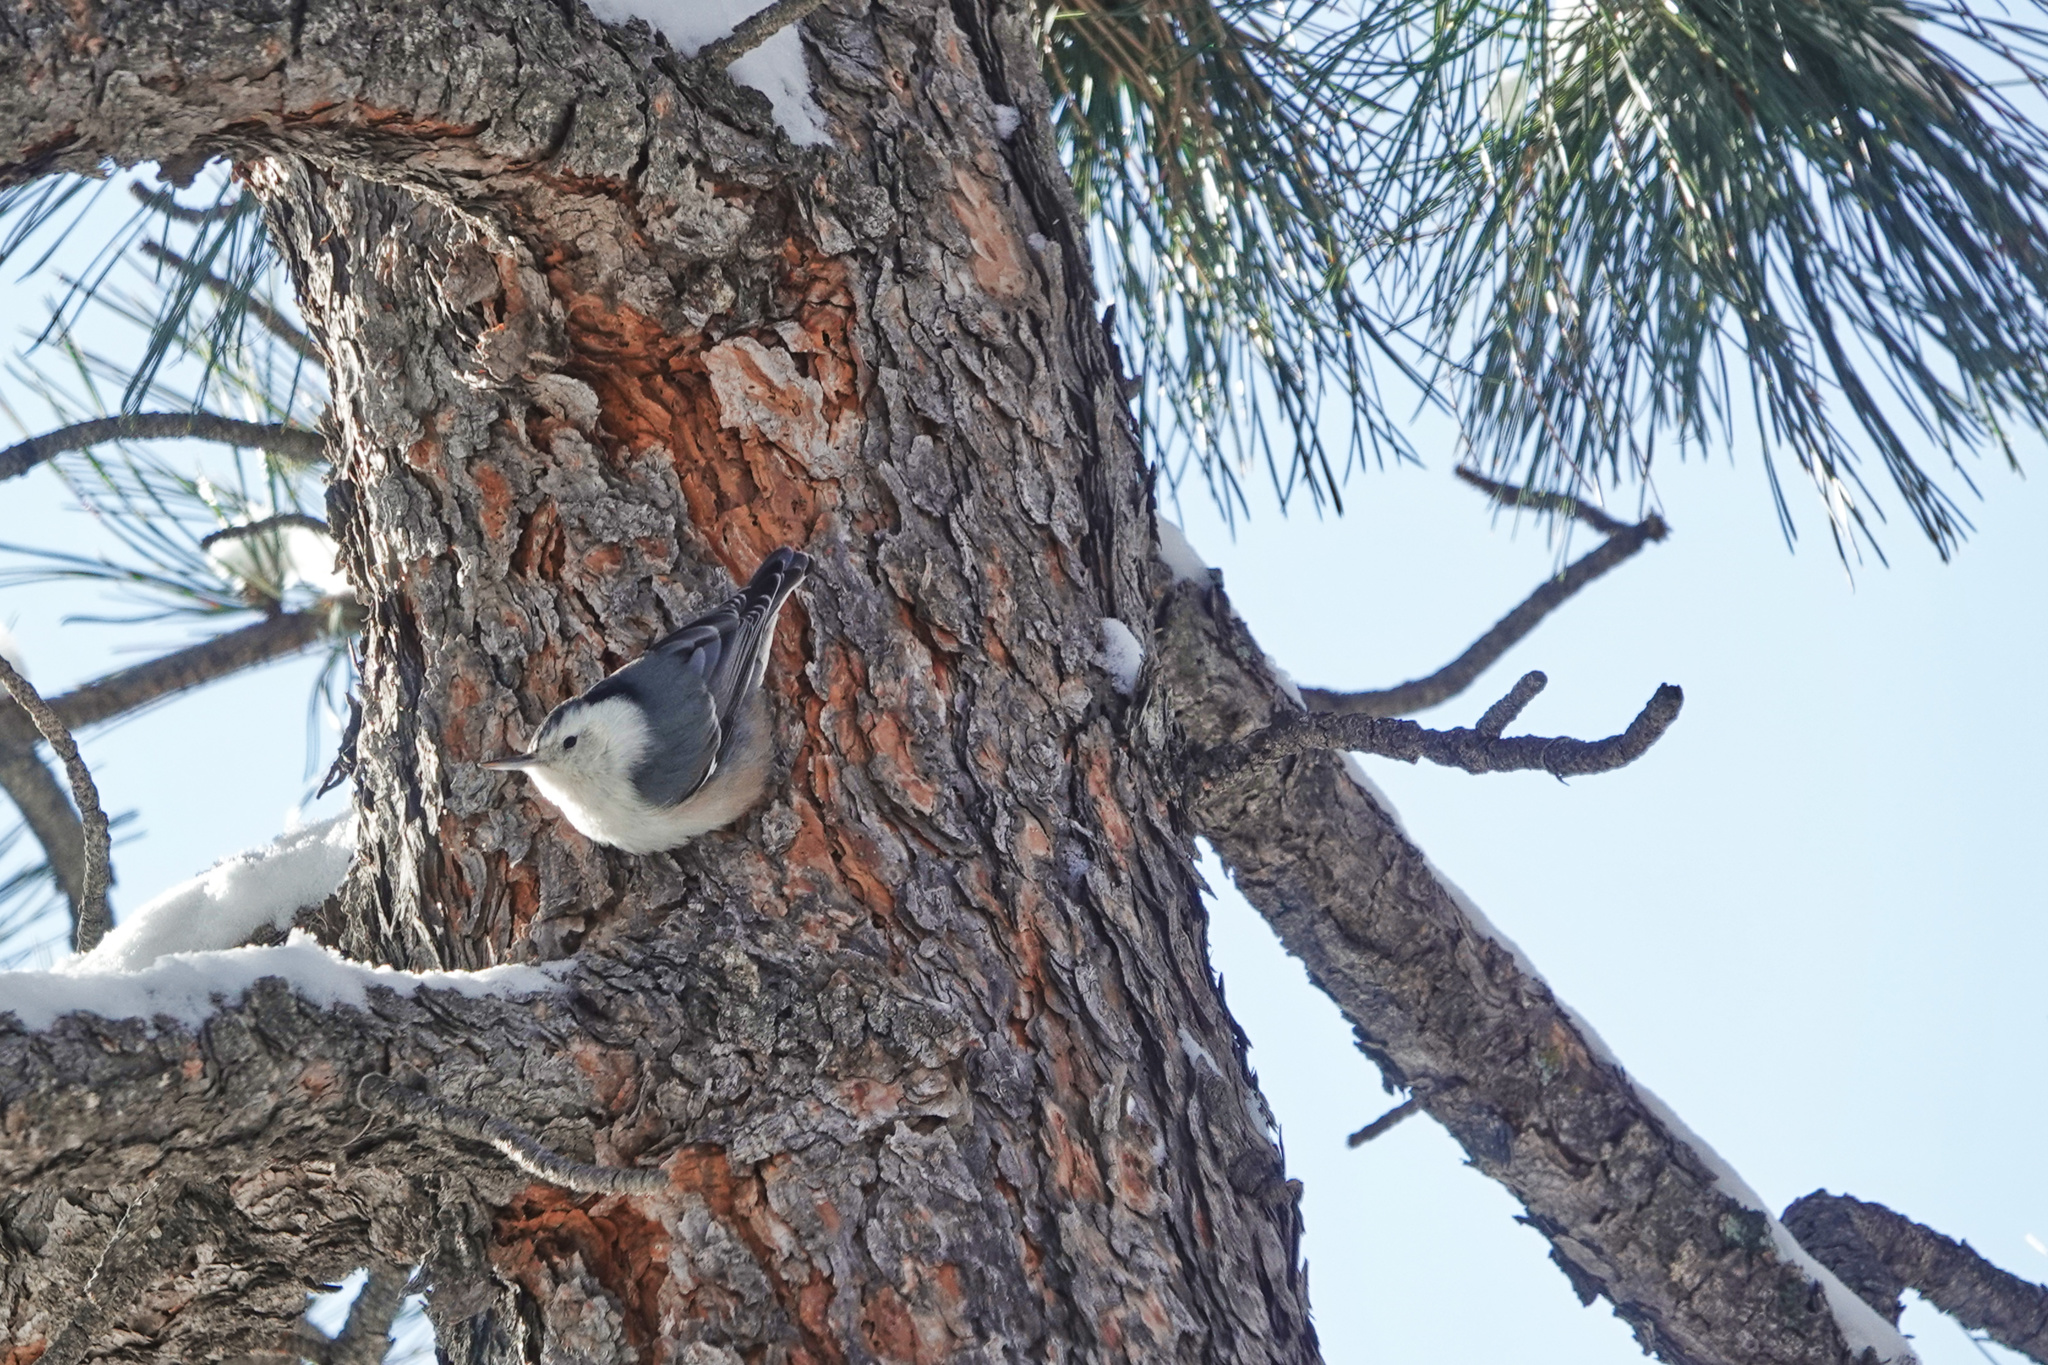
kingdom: Animalia
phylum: Chordata
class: Aves
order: Passeriformes
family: Sittidae
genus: Sitta
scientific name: Sitta carolinensis
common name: White-breasted nuthatch
